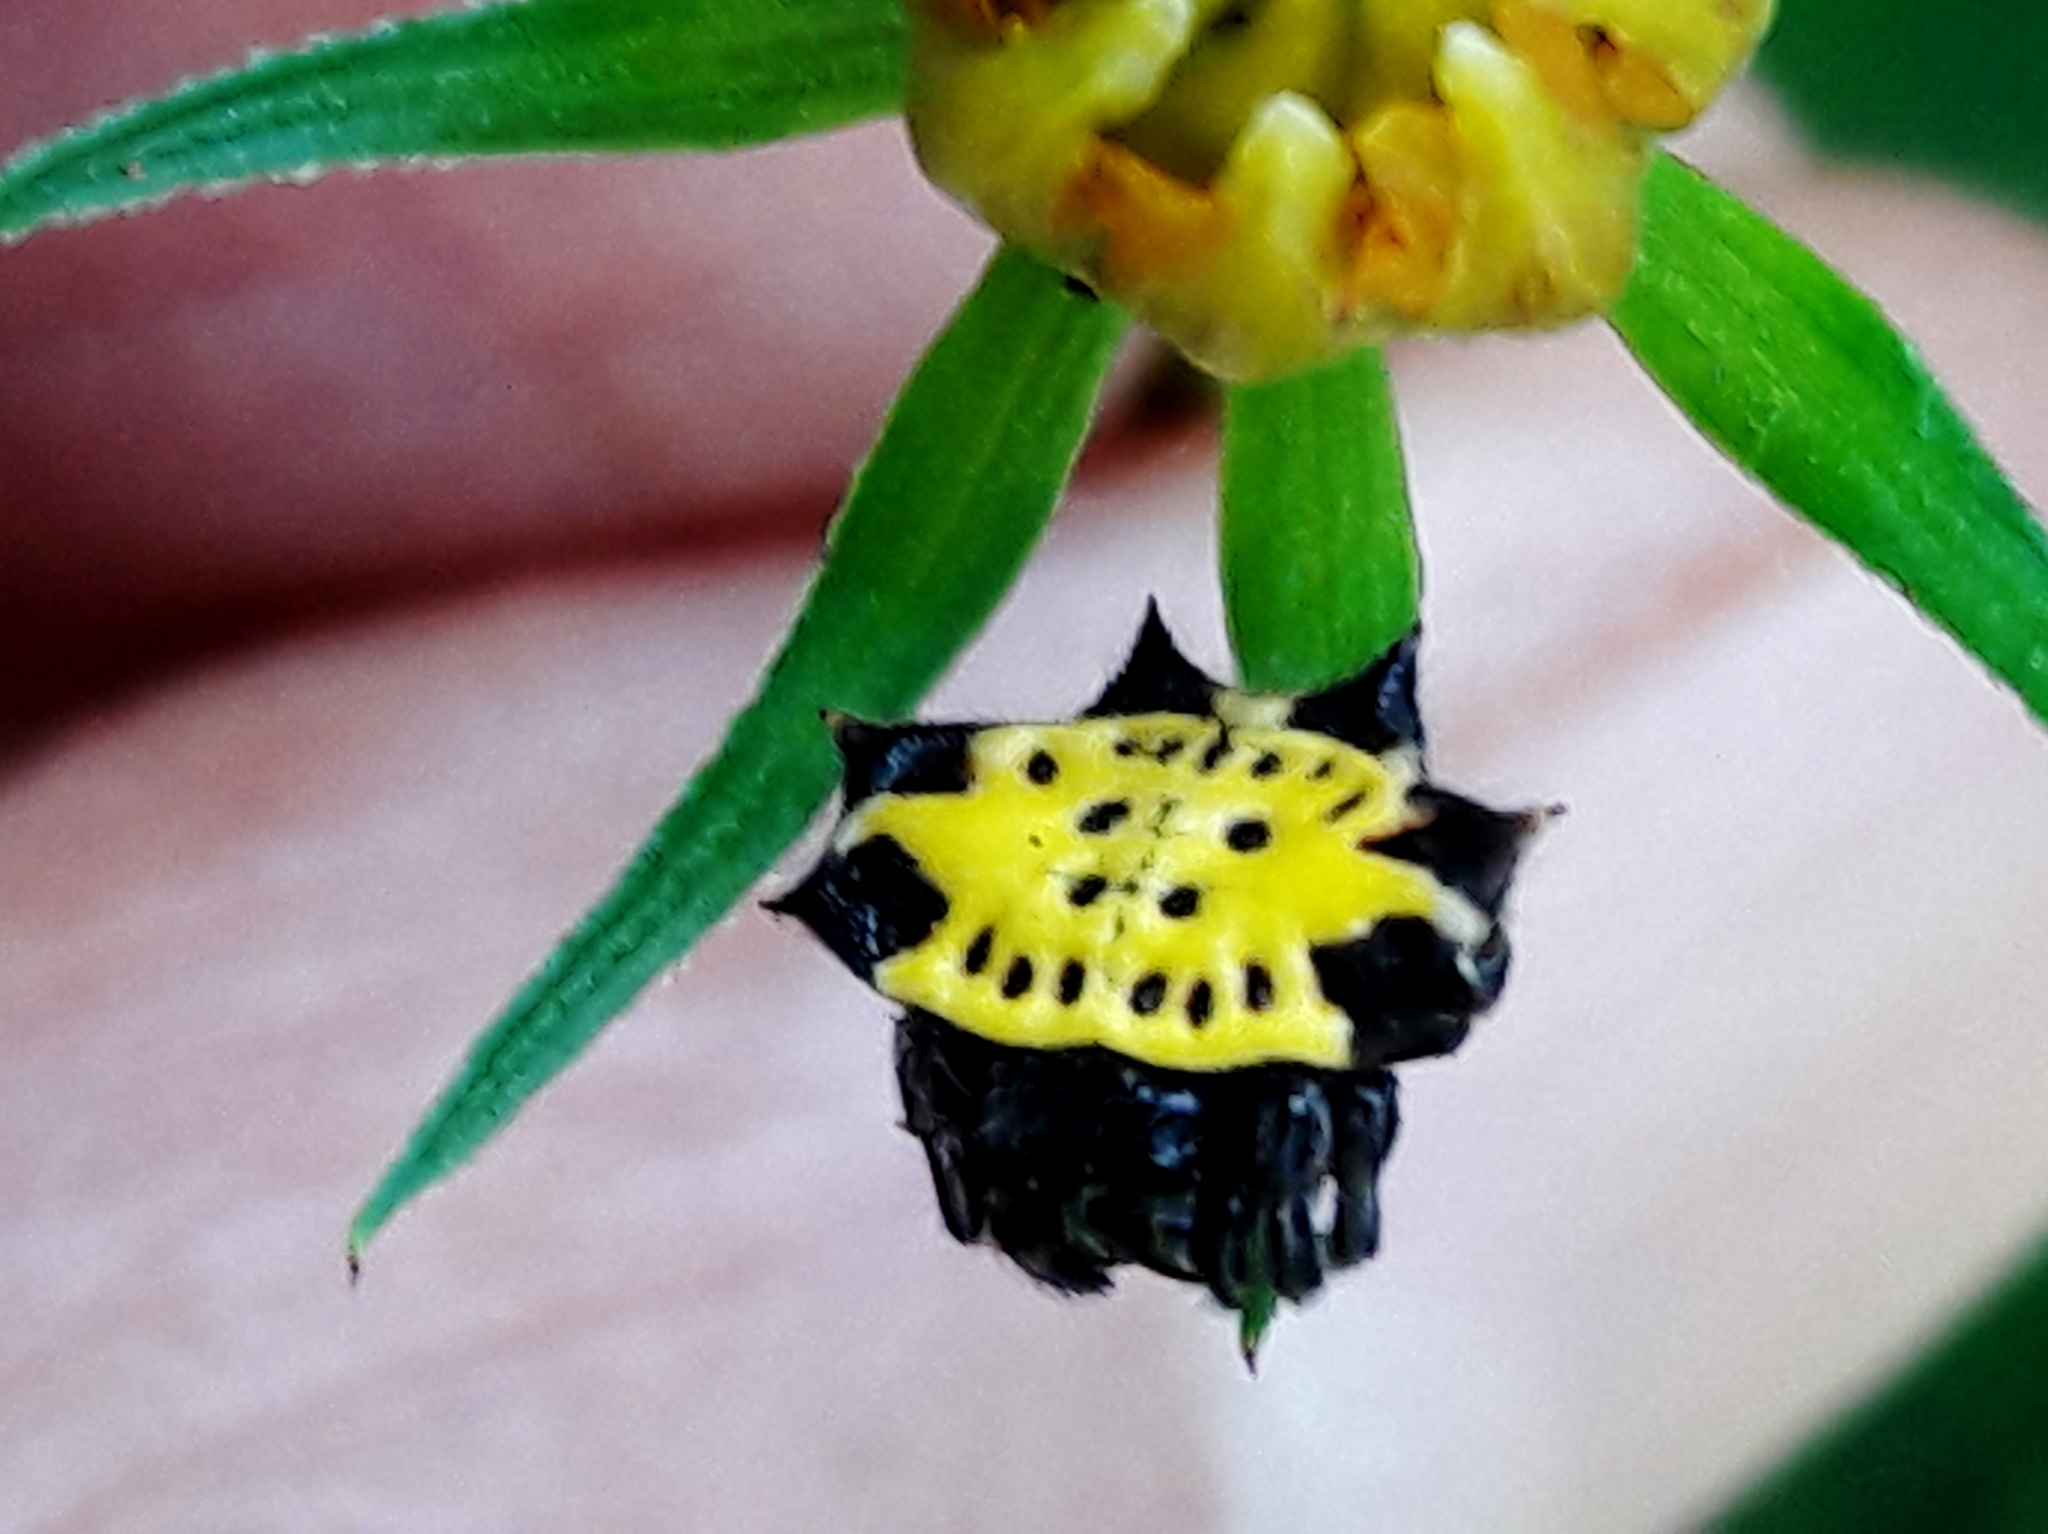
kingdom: Animalia
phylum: Arthropoda
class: Arachnida
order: Araneae
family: Araneidae
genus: Gasteracantha
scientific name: Gasteracantha cancriformis
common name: Orb weavers
